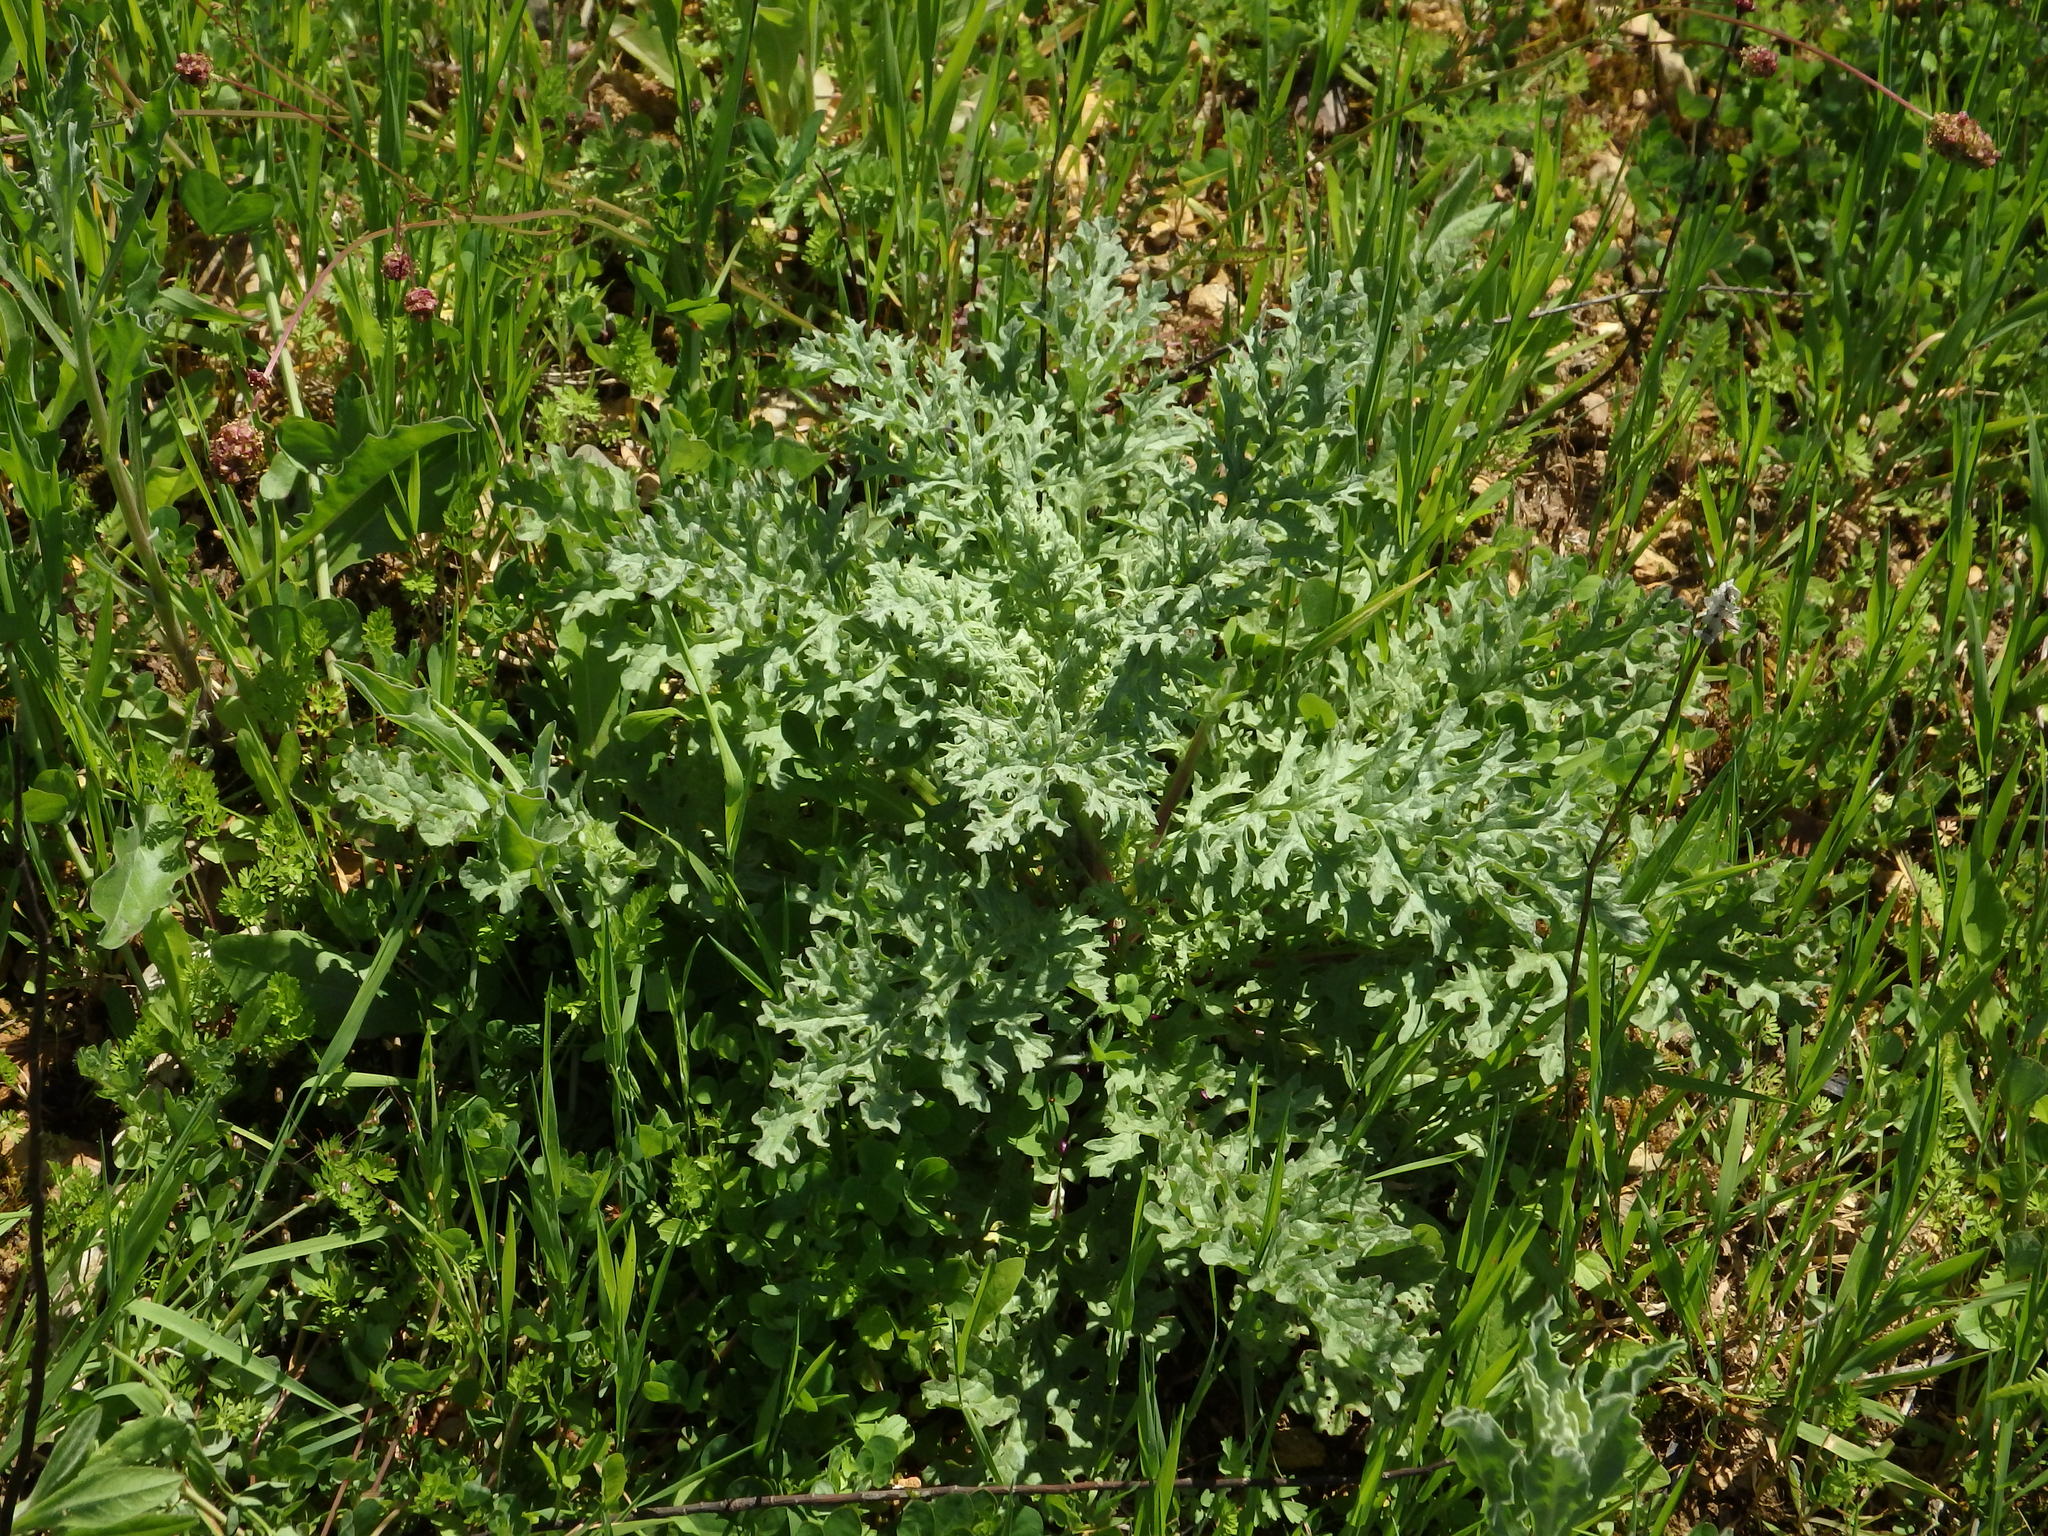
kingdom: Plantae
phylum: Tracheophyta
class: Magnoliopsida
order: Asterales
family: Asteraceae
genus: Jacobaea
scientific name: Jacobaea vulgaris
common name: Stinking willie
